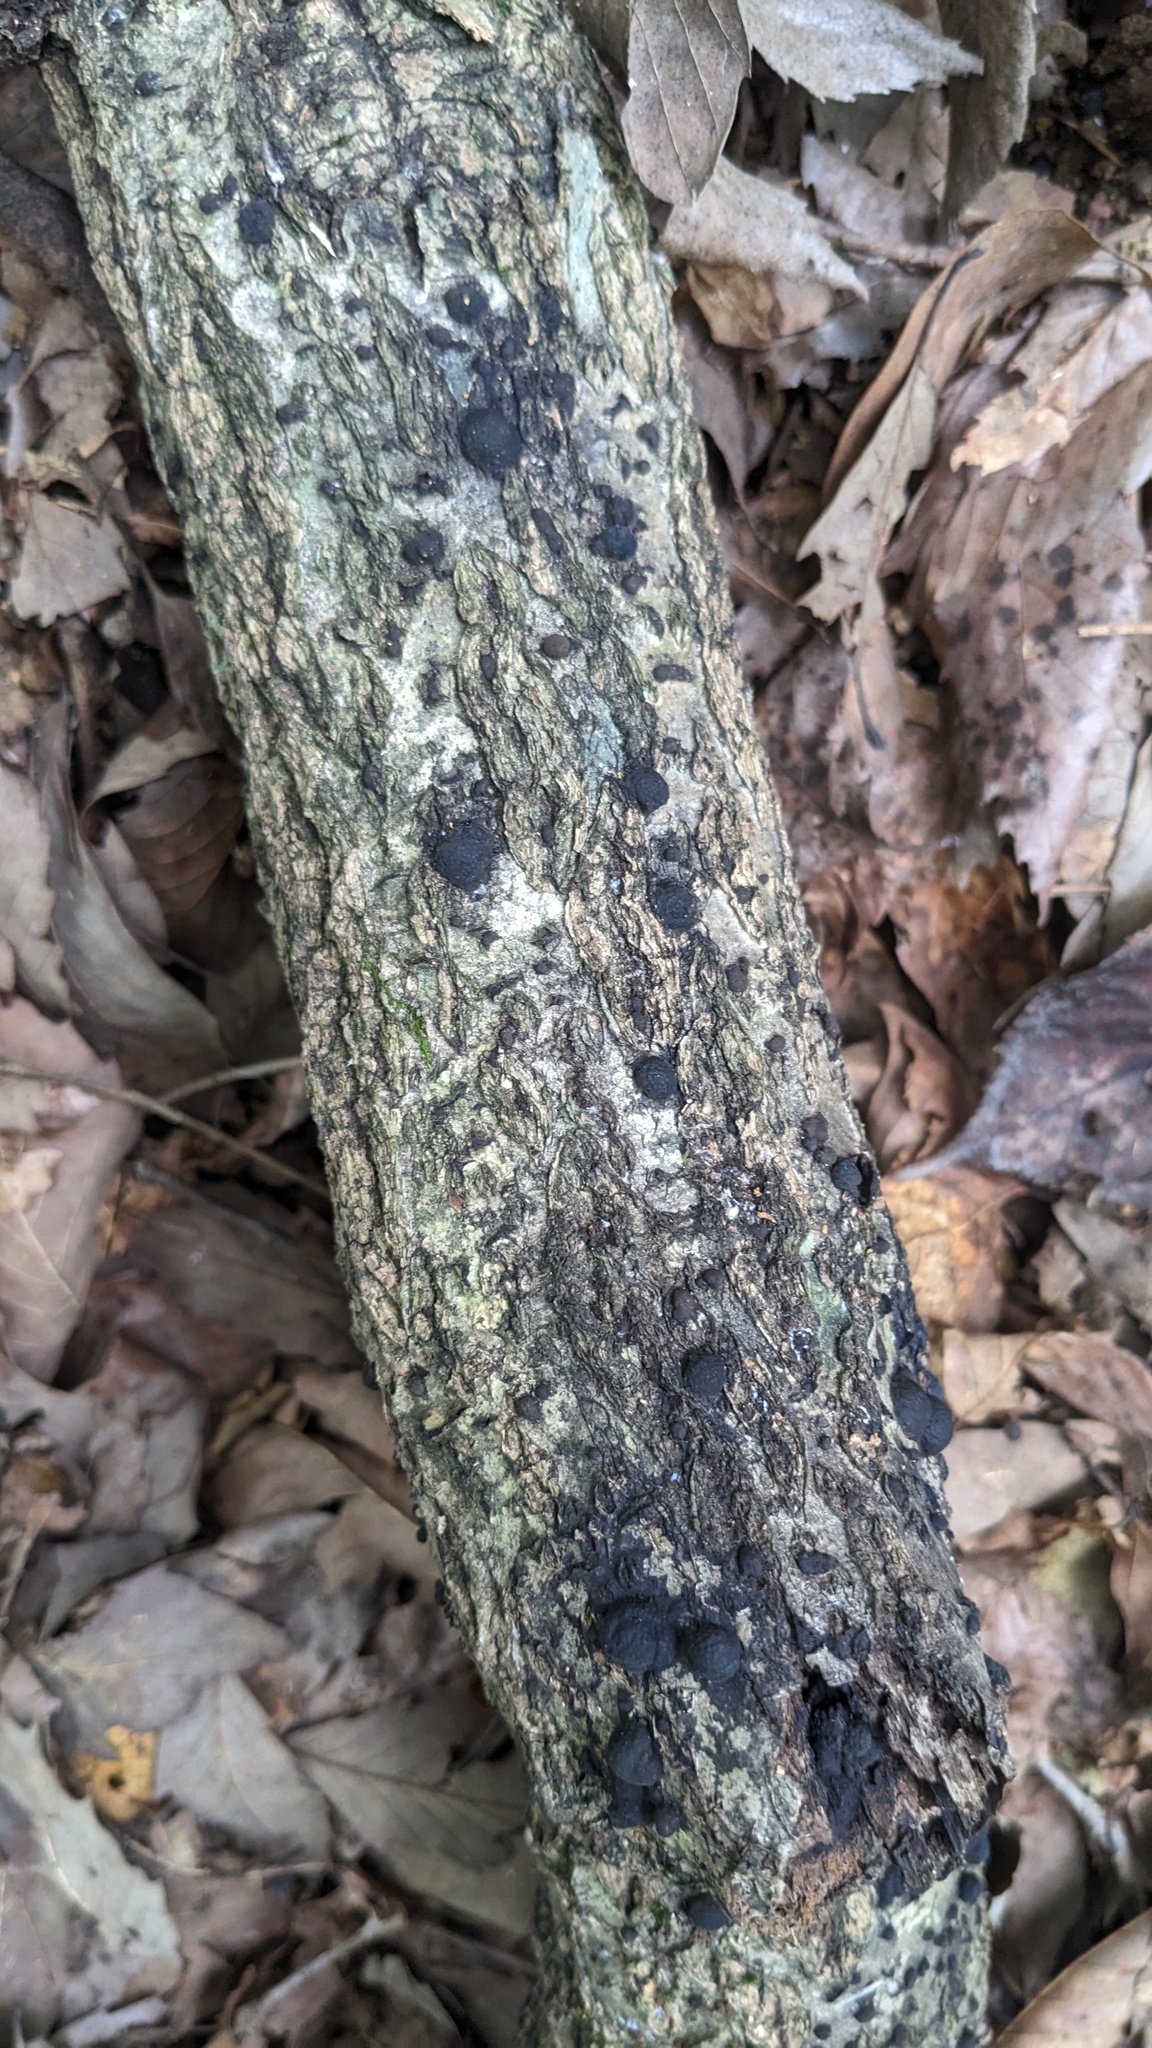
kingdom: Fungi
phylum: Ascomycota
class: Sordariomycetes
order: Xylariales
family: Hypoxylaceae
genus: Annulohypoxylon
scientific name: Annulohypoxylon truncatum
